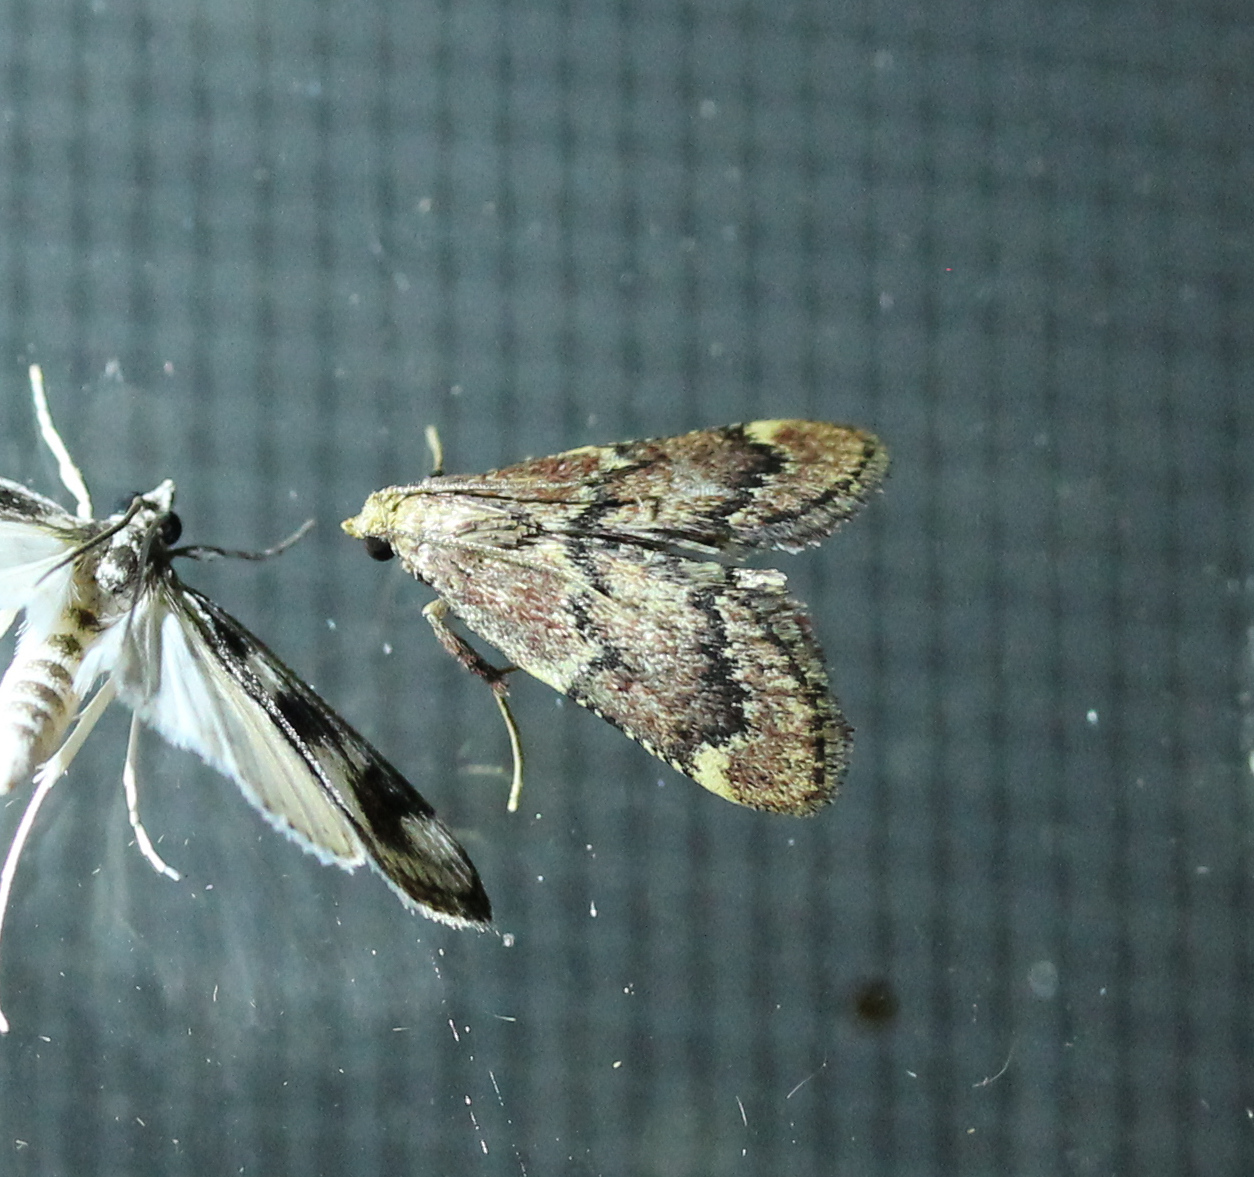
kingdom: Animalia
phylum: Arthropoda
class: Insecta
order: Lepidoptera
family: Pyralidae
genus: Hypsopygia
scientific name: Hypsopygia intermedialis
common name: Red-shawled moth
